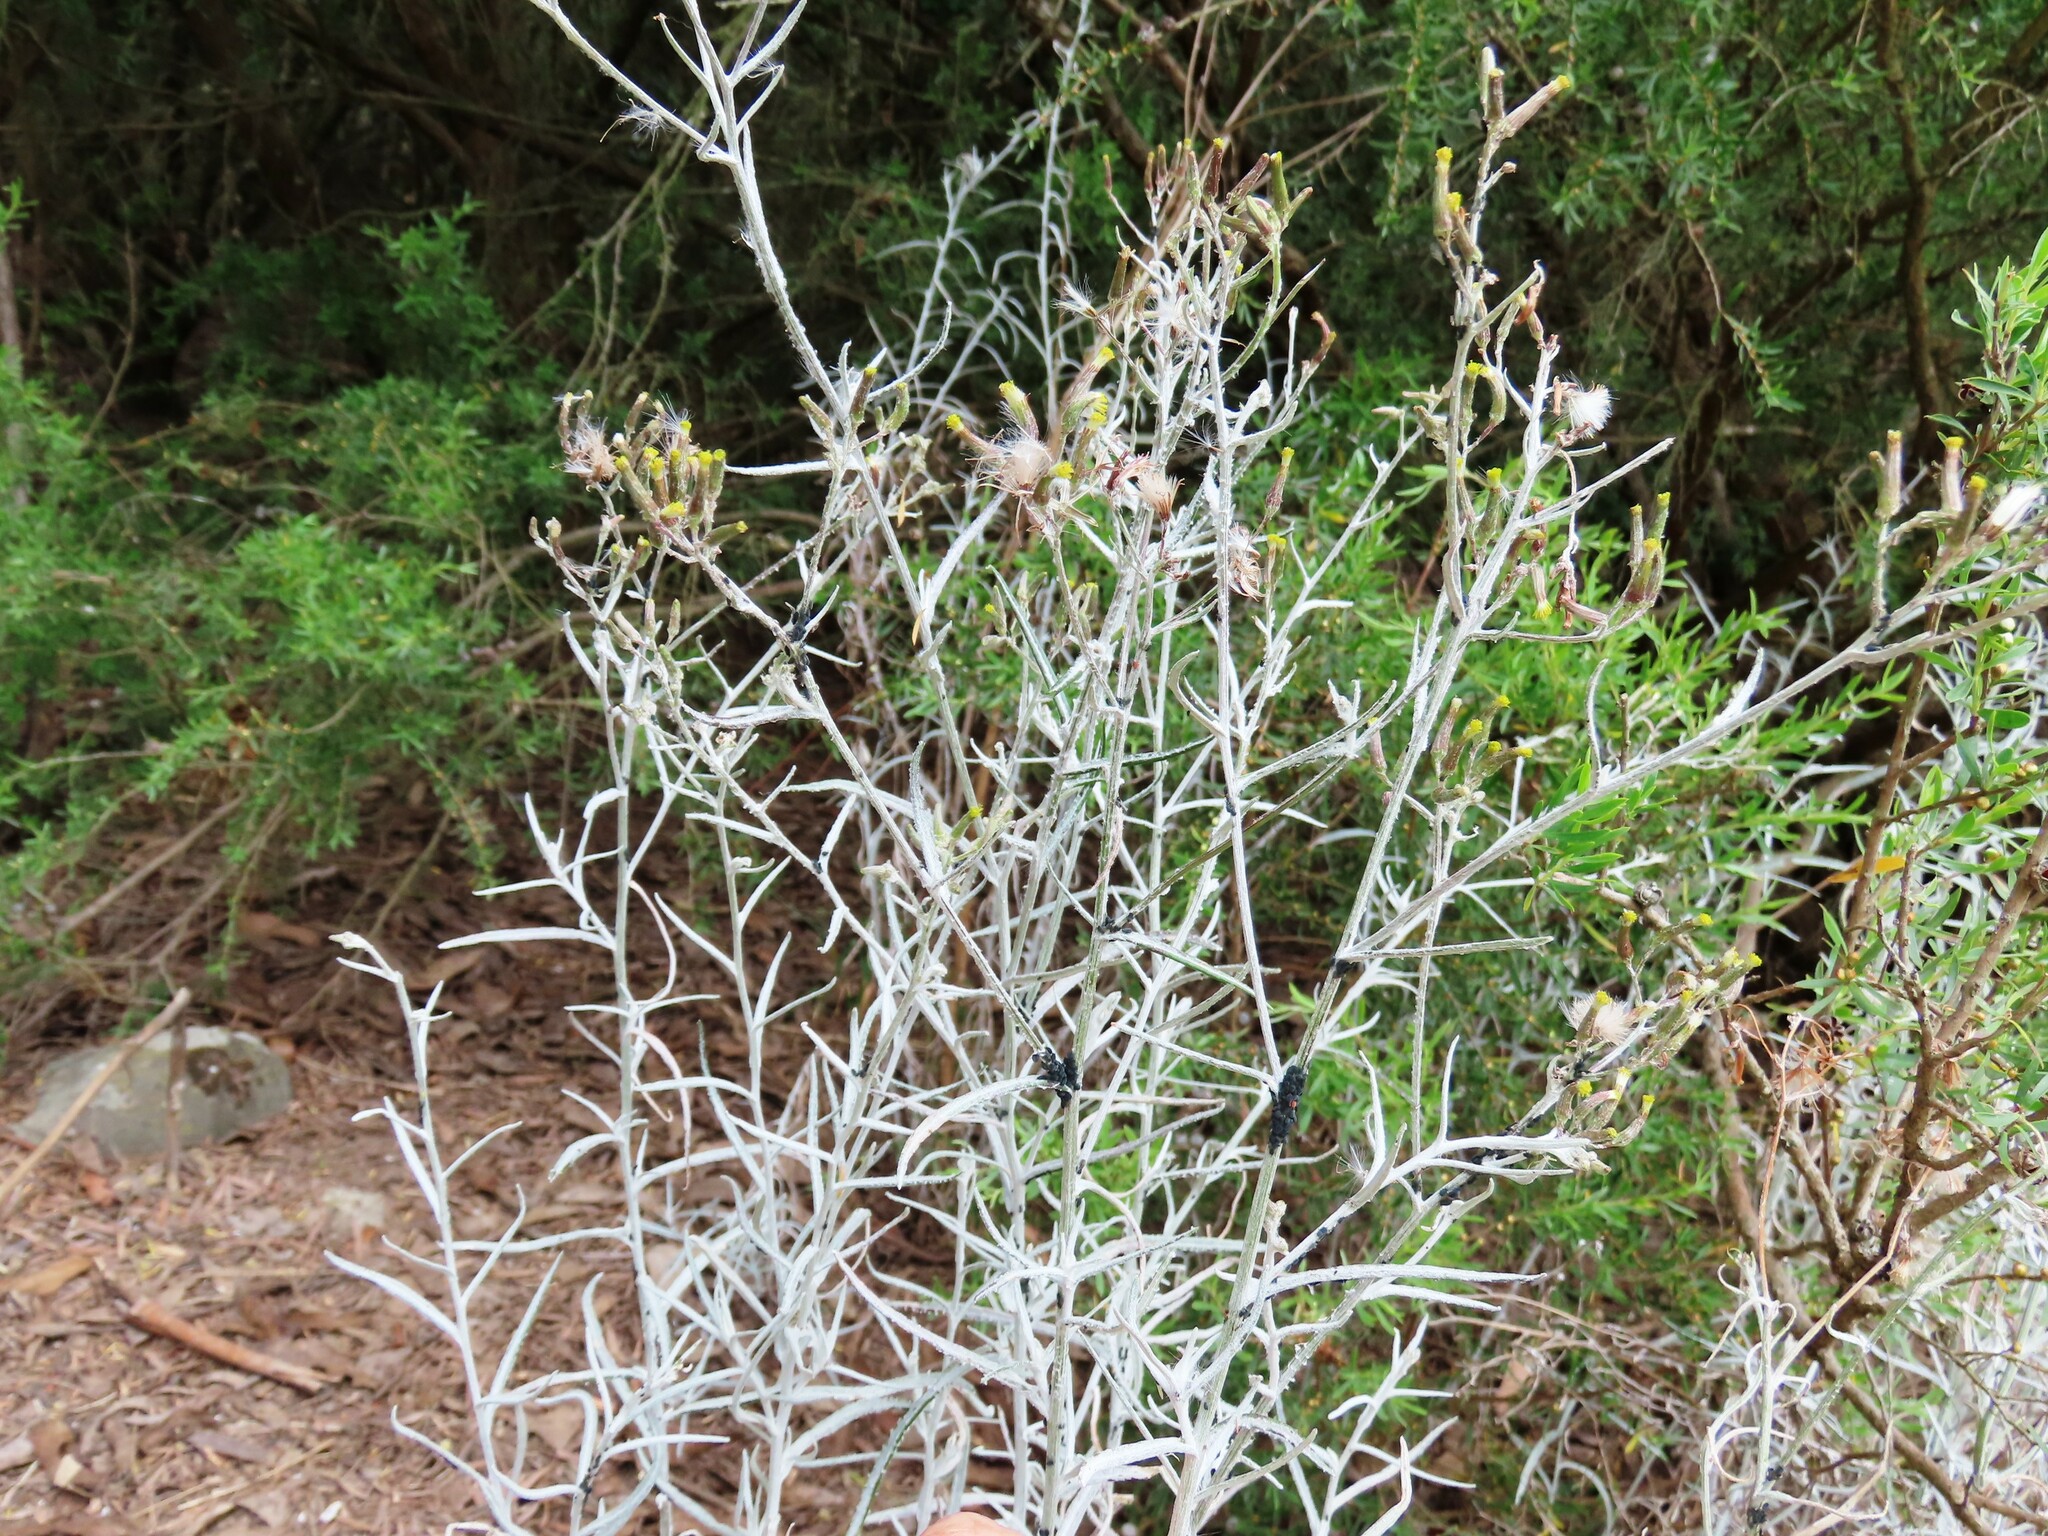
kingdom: Plantae
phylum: Tracheophyta
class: Magnoliopsida
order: Asterales
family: Asteraceae
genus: Senecio
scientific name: Senecio quadridentatus
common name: Cotton fireweed
